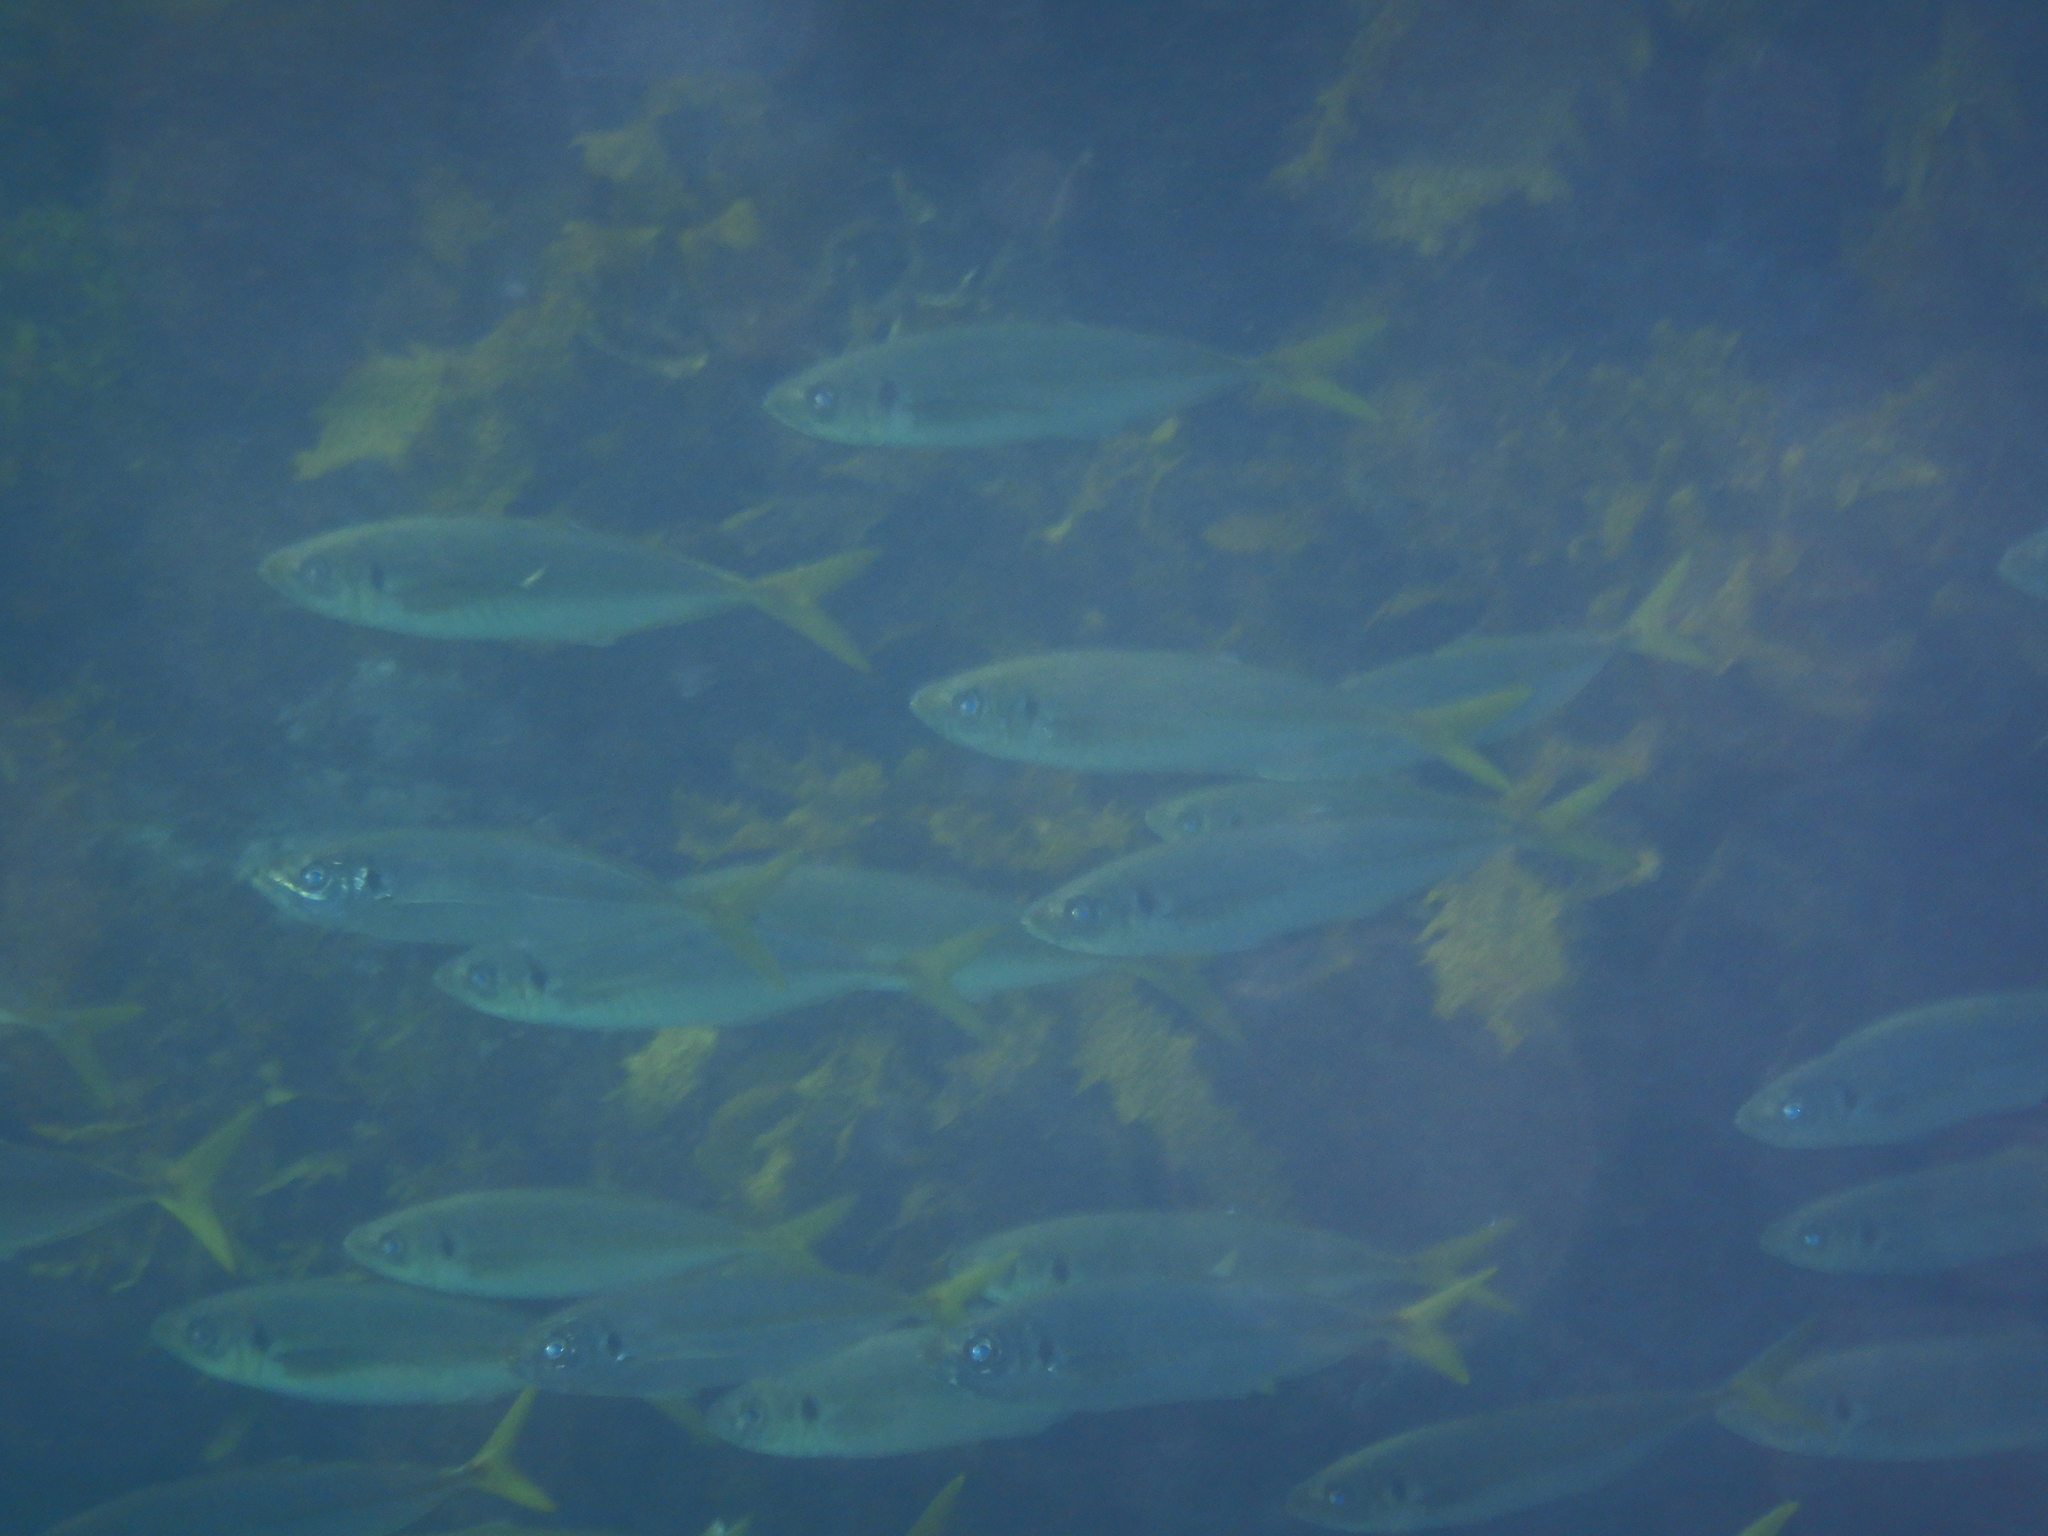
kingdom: Animalia
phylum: Chordata
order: Perciformes
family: Carangidae
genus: Trachurus
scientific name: Trachurus novaezelandiae
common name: Yellowtail horse mackerel
